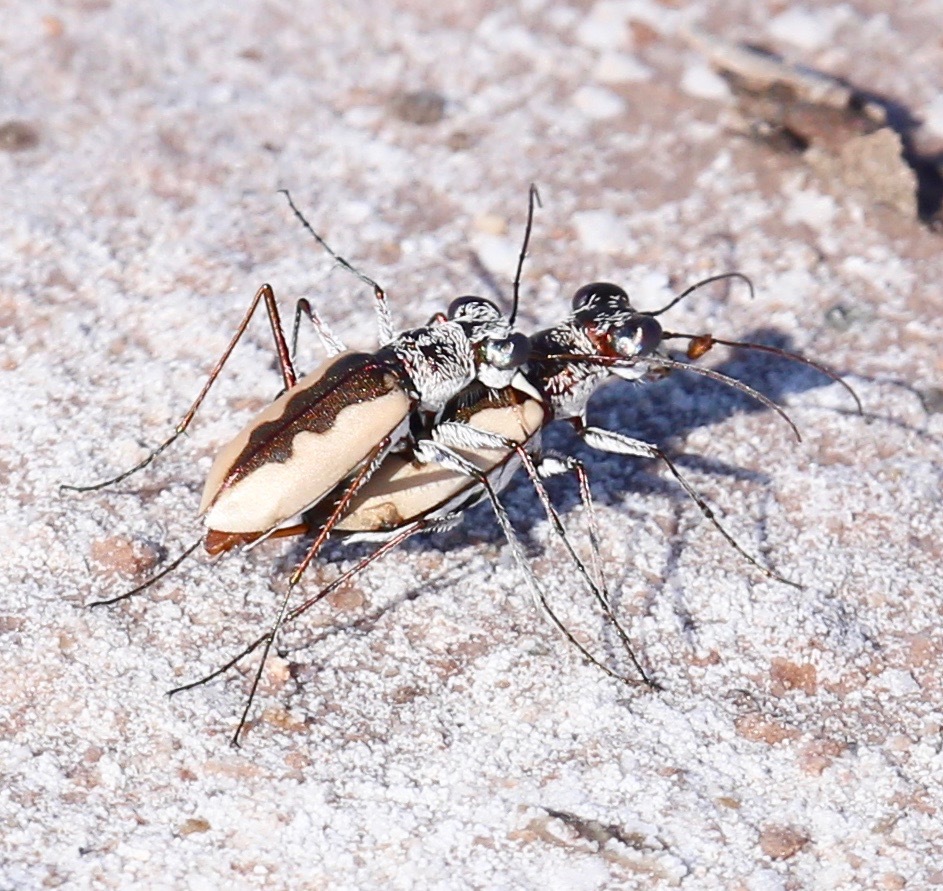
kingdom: Animalia
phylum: Arthropoda
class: Insecta
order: Coleoptera
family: Carabidae
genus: Eunota
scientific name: Eunota togata
